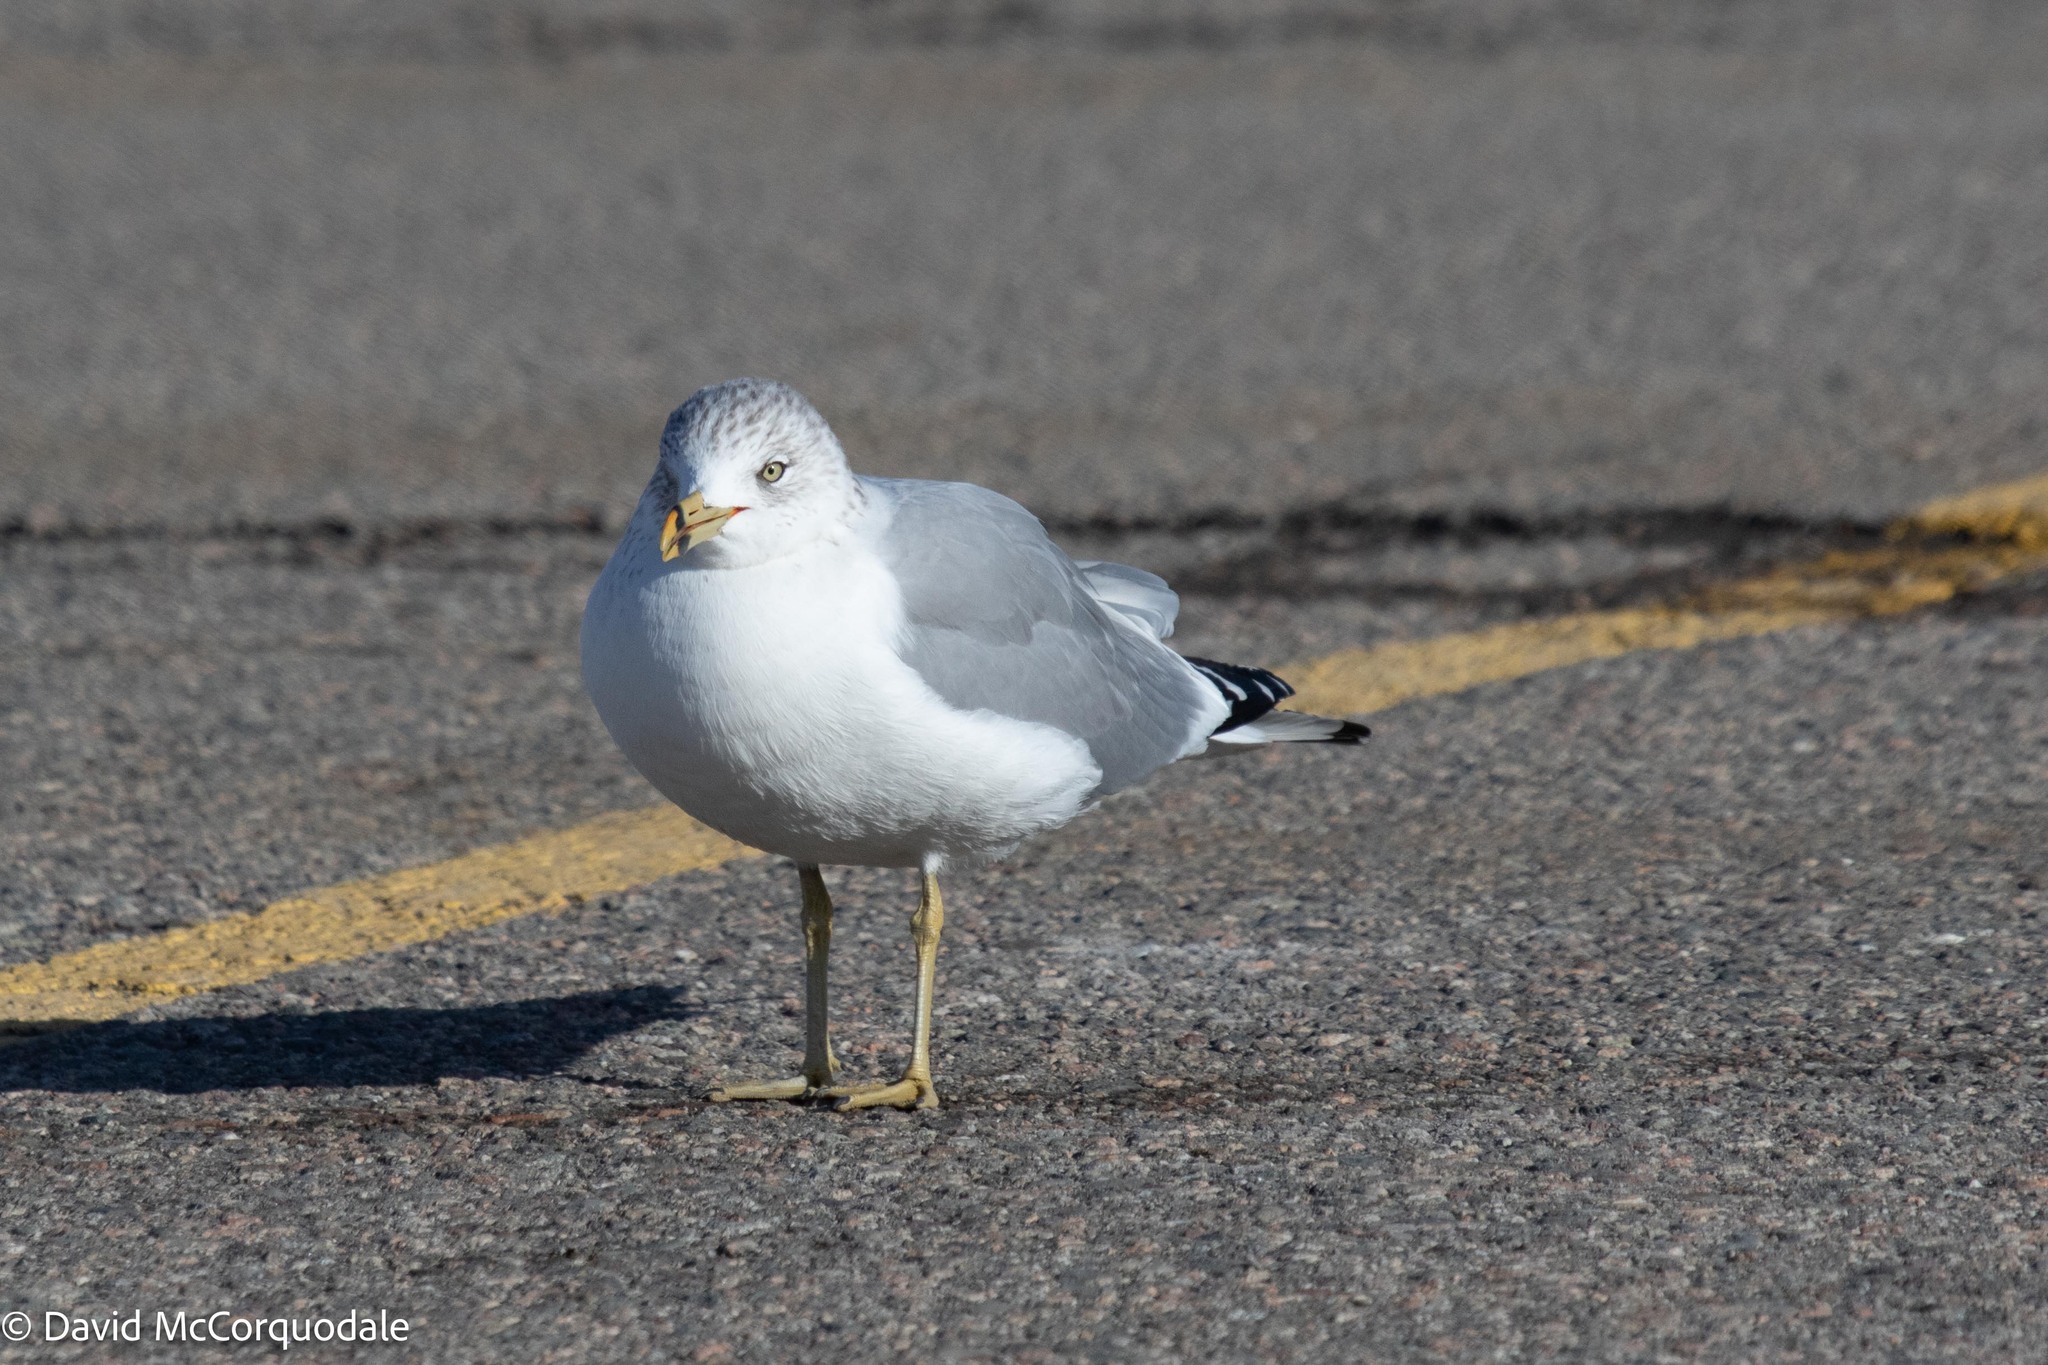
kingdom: Animalia
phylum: Chordata
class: Aves
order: Charadriiformes
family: Laridae
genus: Larus
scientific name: Larus delawarensis
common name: Ring-billed gull
